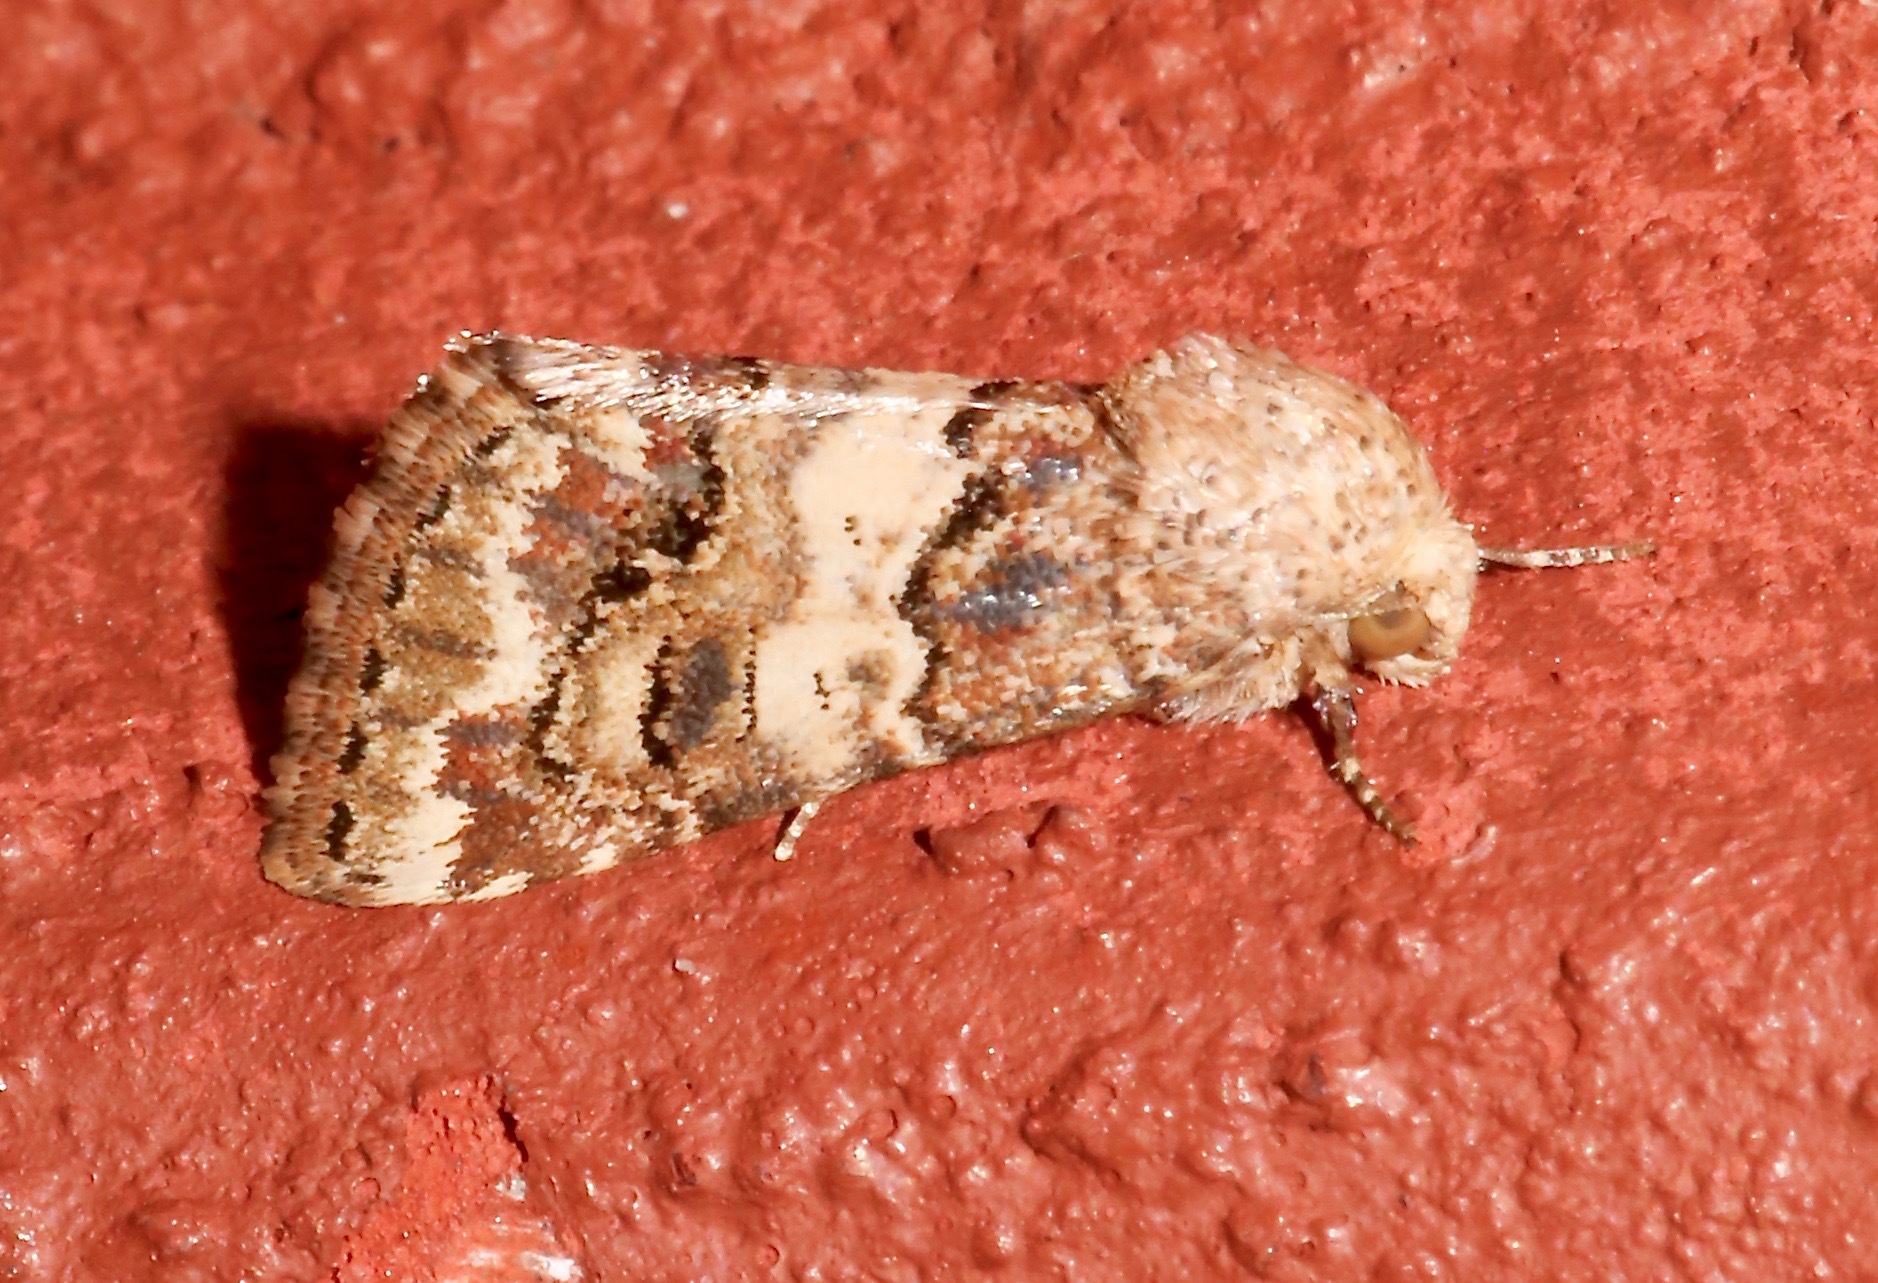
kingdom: Animalia
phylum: Arthropoda
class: Insecta
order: Lepidoptera
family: Noctuidae
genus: Schinia
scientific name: Schinia tertia
